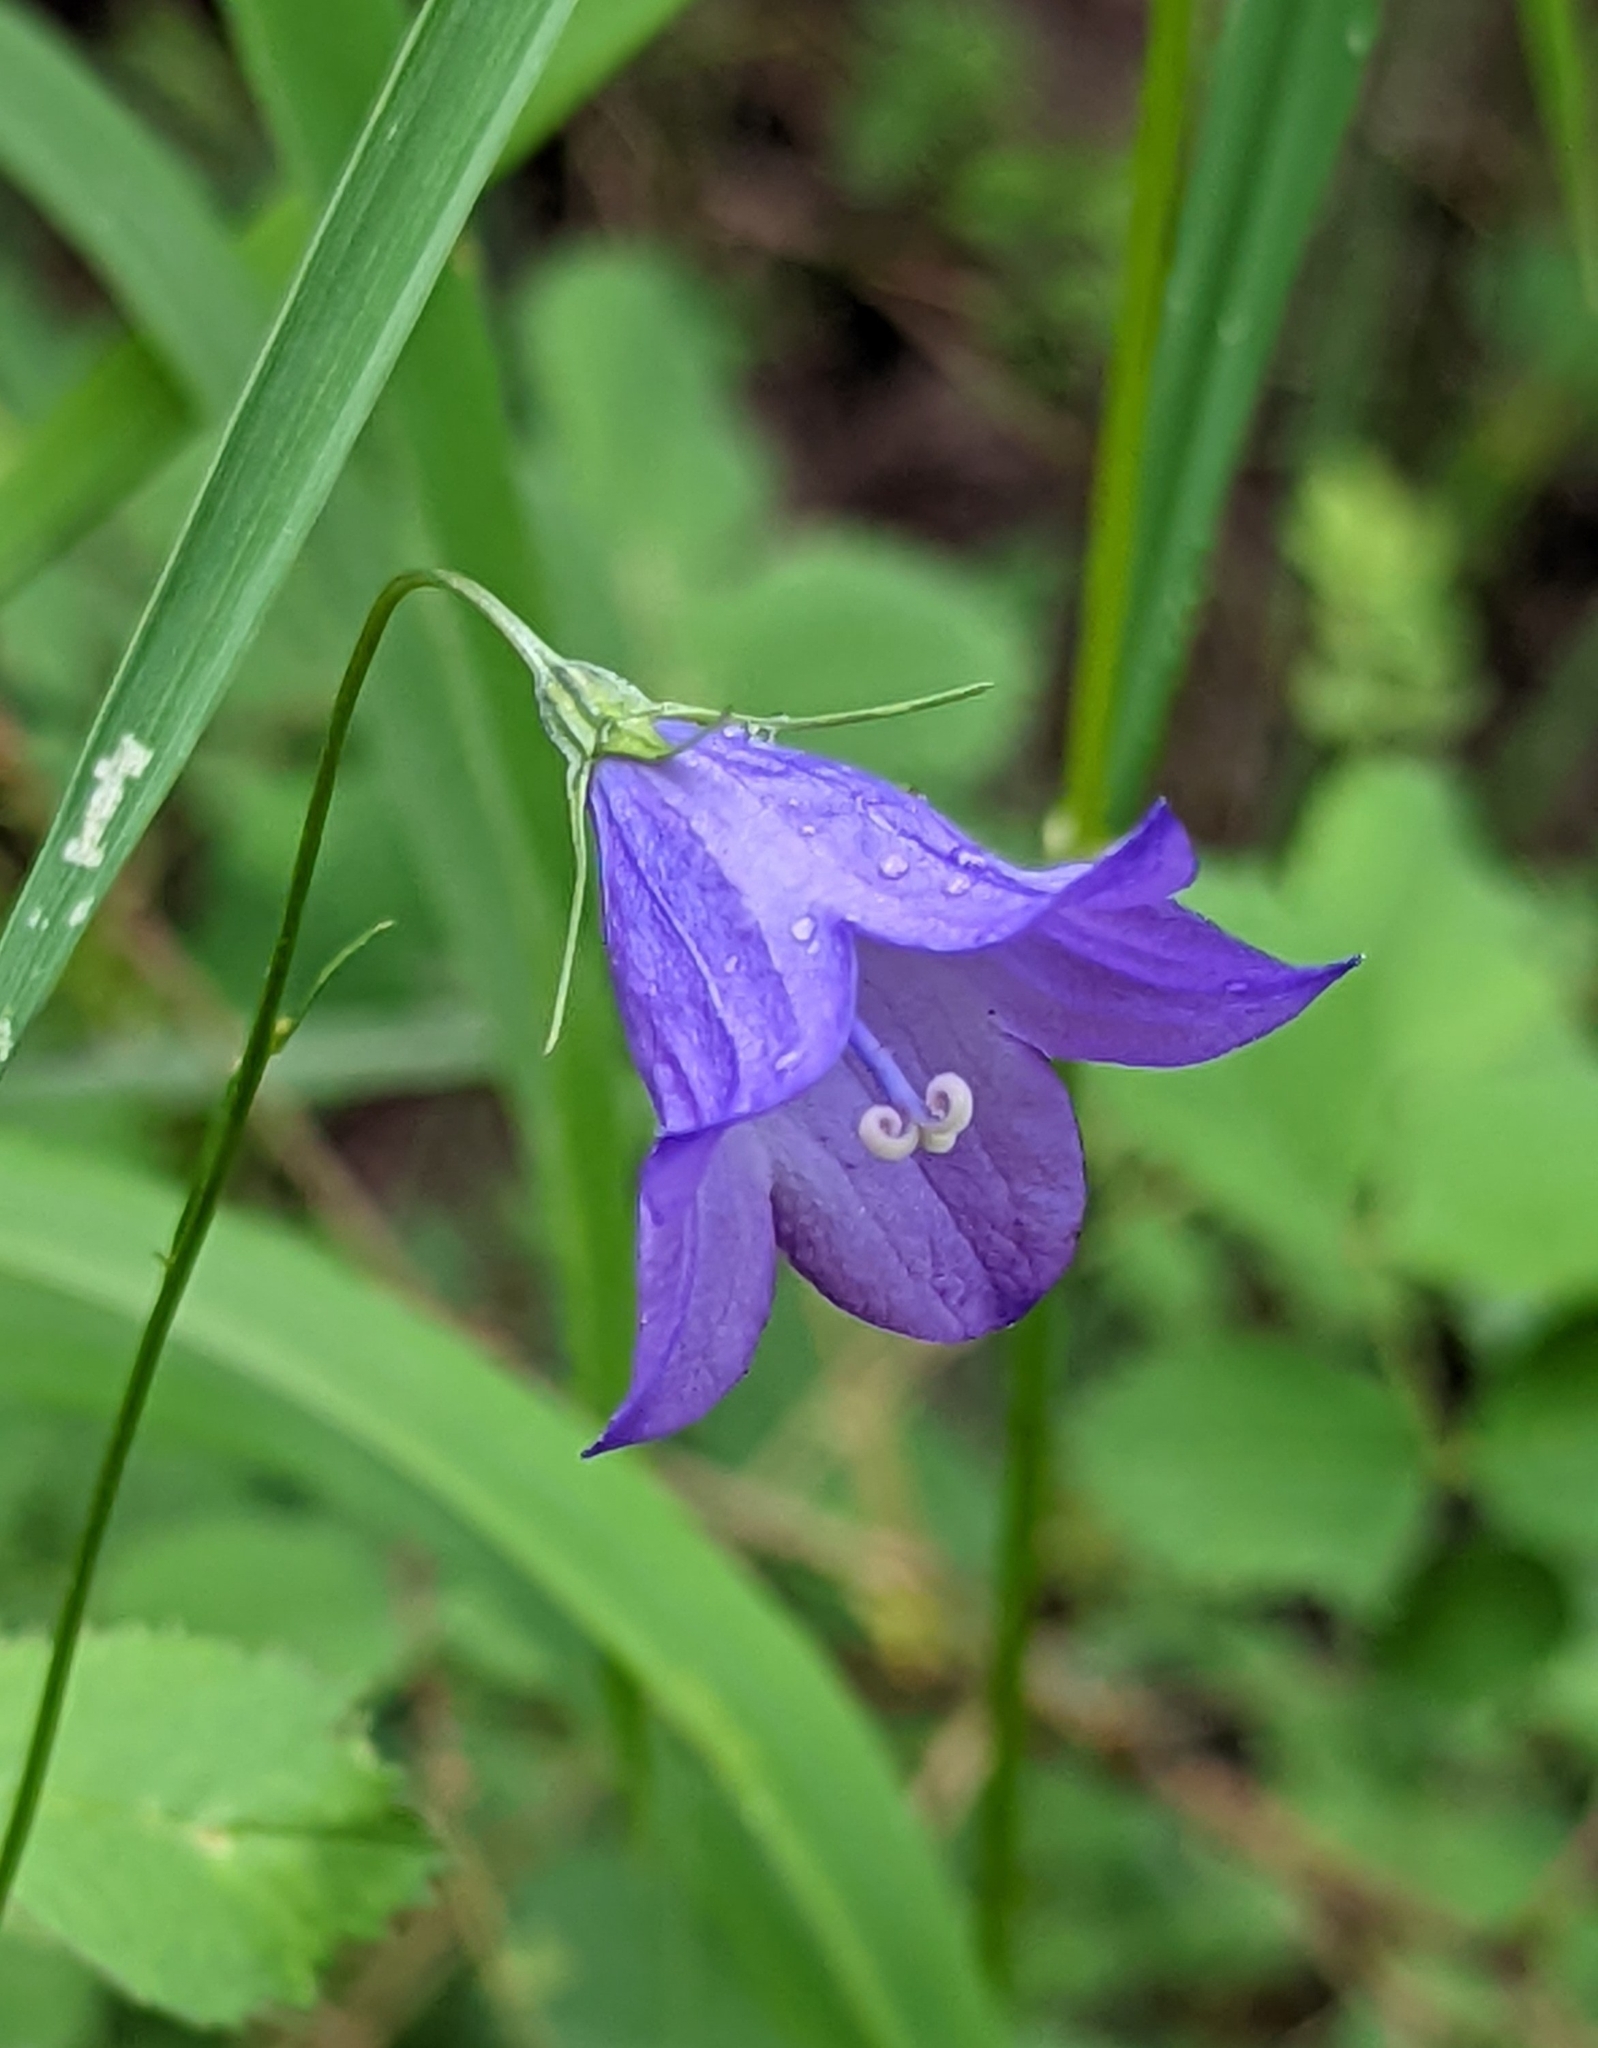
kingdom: Plantae
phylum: Tracheophyta
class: Magnoliopsida
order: Asterales
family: Campanulaceae
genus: Campanula
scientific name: Campanula petiolata
